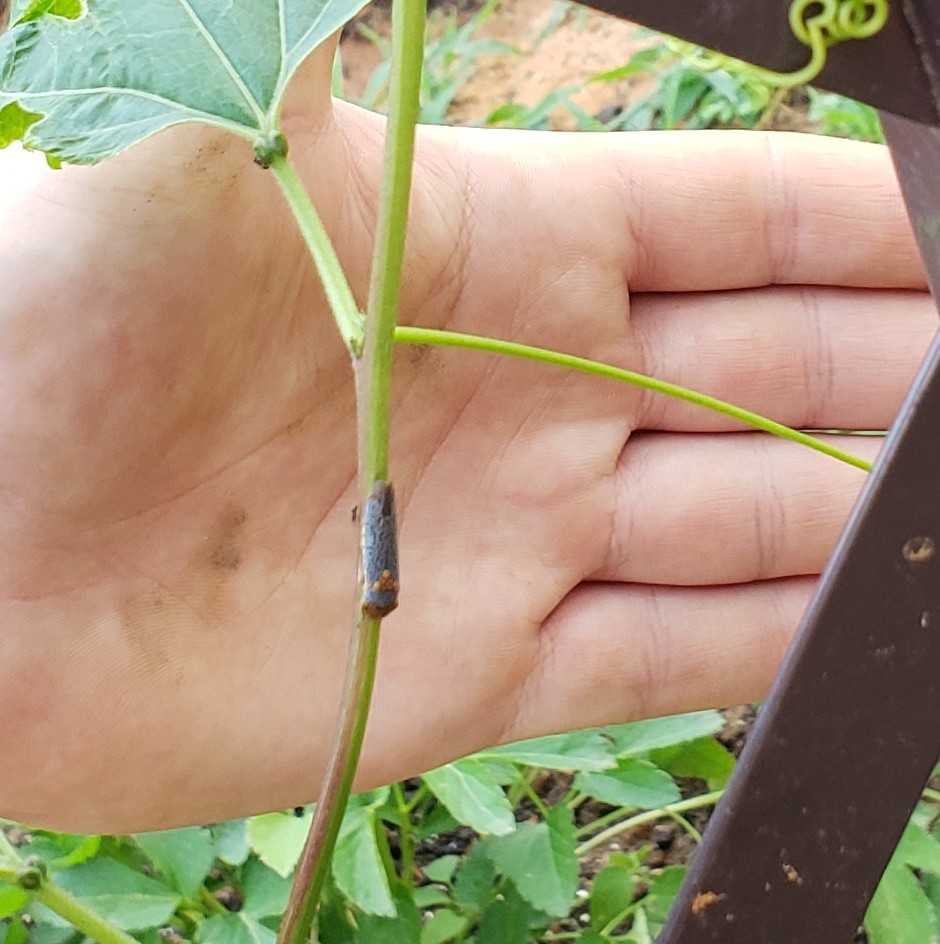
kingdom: Animalia
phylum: Arthropoda
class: Insecta
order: Hemiptera
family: Cicadellidae
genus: Oncometopia
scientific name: Oncometopia orbona
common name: Broad-headed sharpshooter
